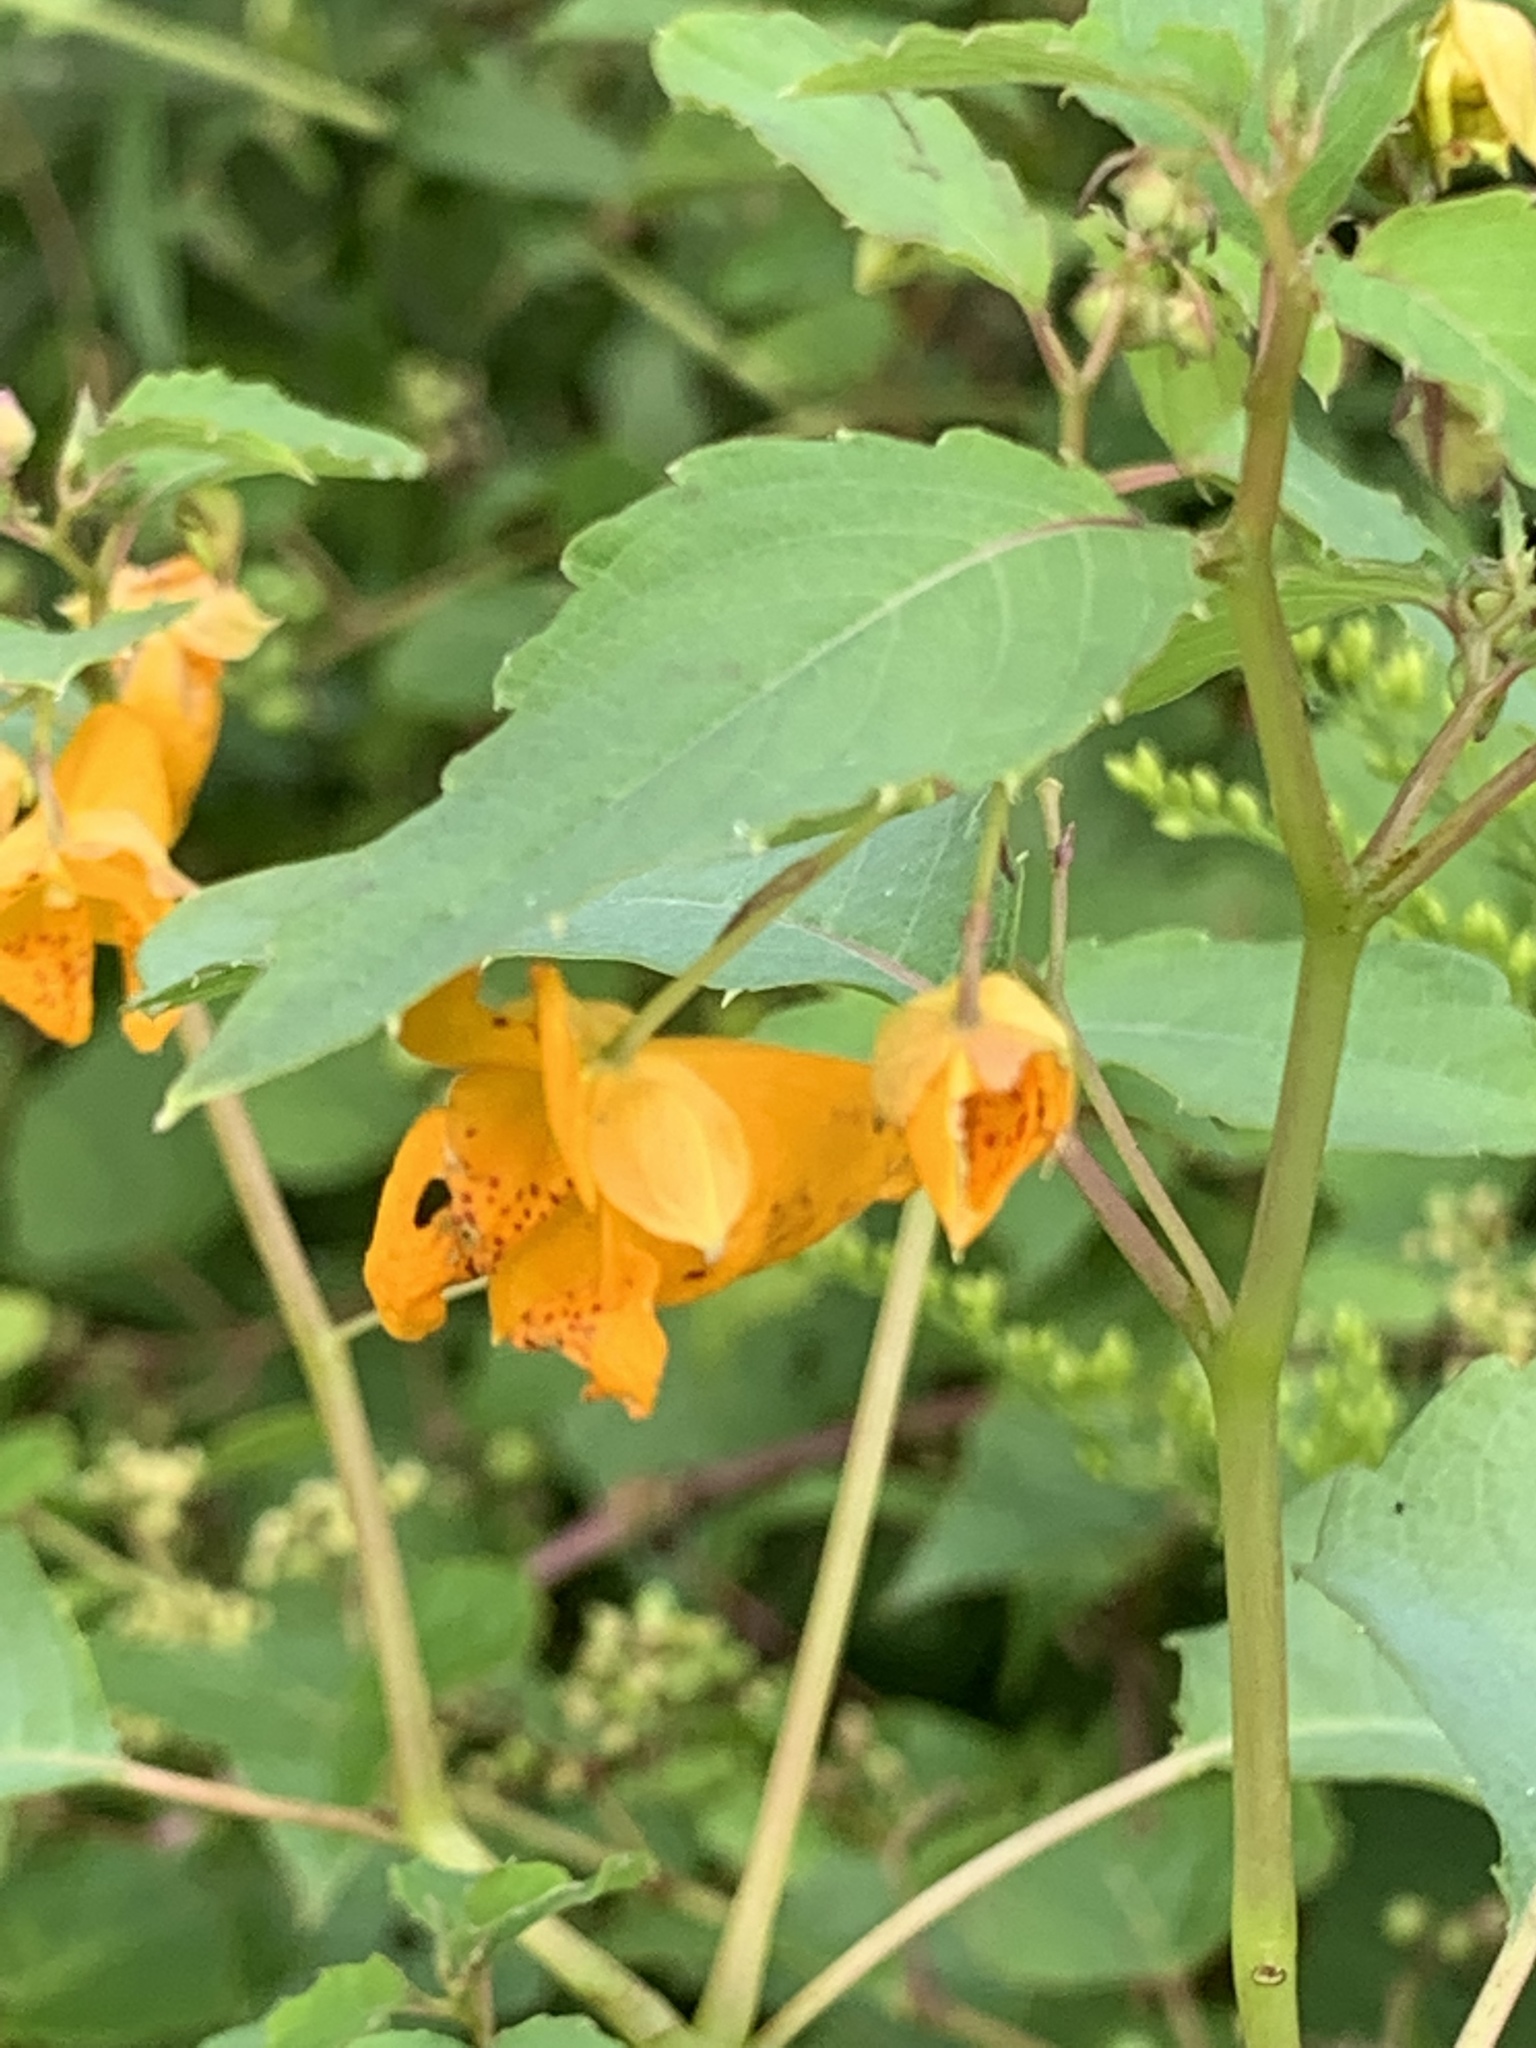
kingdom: Plantae
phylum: Tracheophyta
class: Magnoliopsida
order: Ericales
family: Balsaminaceae
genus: Impatiens
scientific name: Impatiens capensis
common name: Orange balsam
